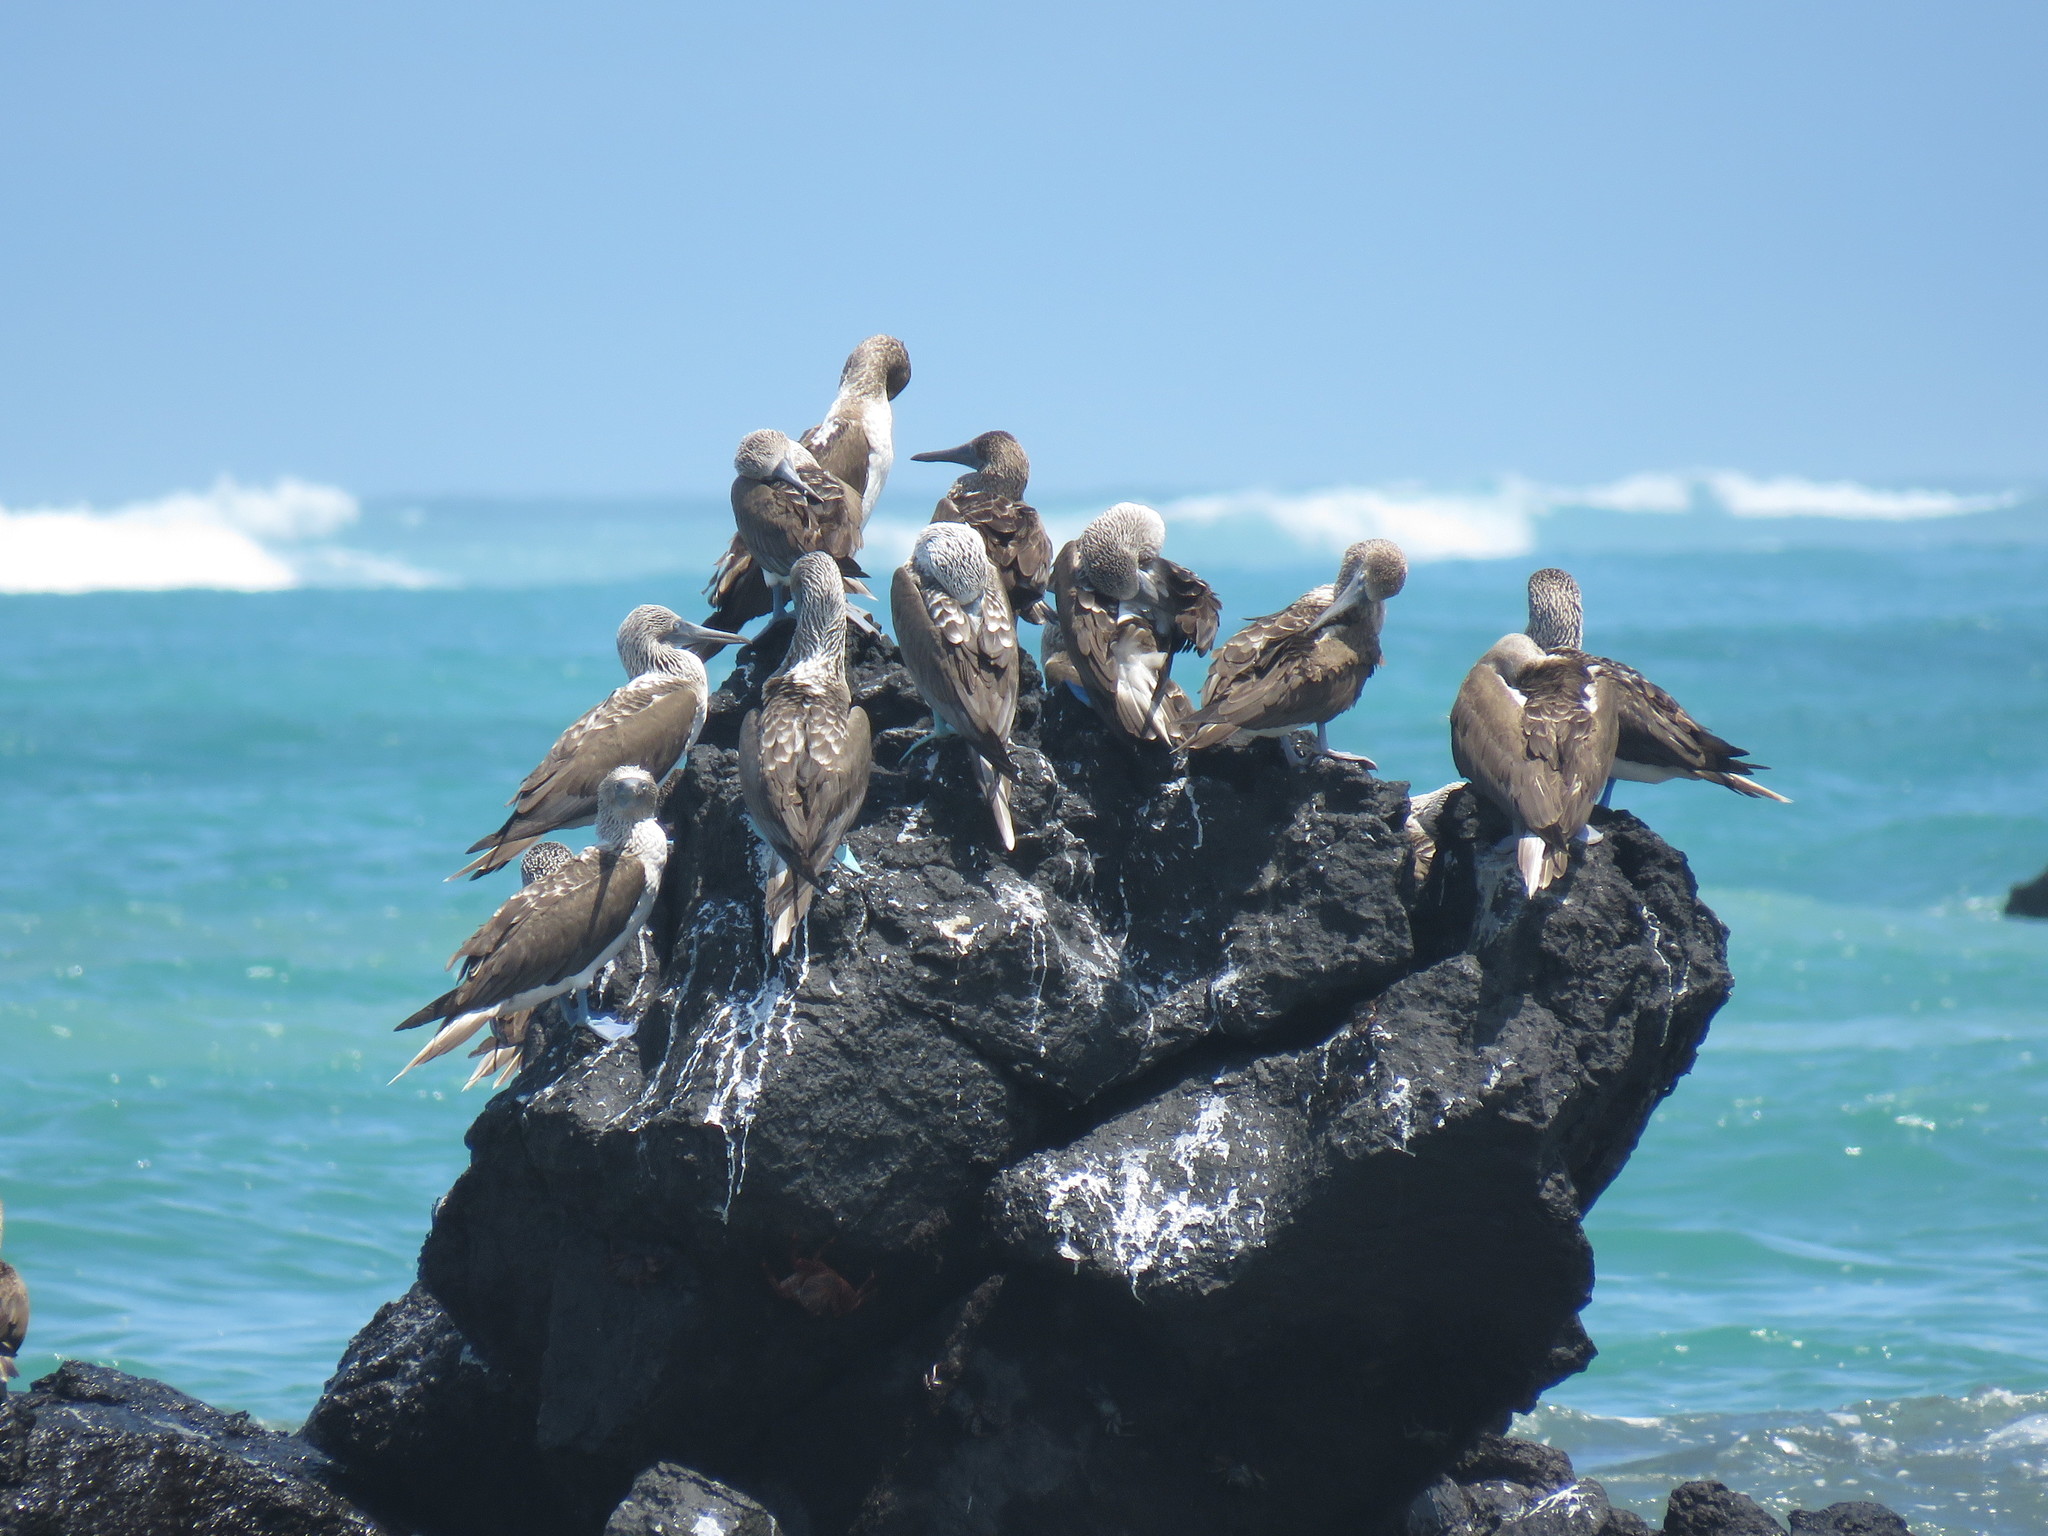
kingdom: Animalia
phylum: Chordata
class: Aves
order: Suliformes
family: Sulidae
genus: Sula
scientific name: Sula nebouxii
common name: Blue-footed booby
